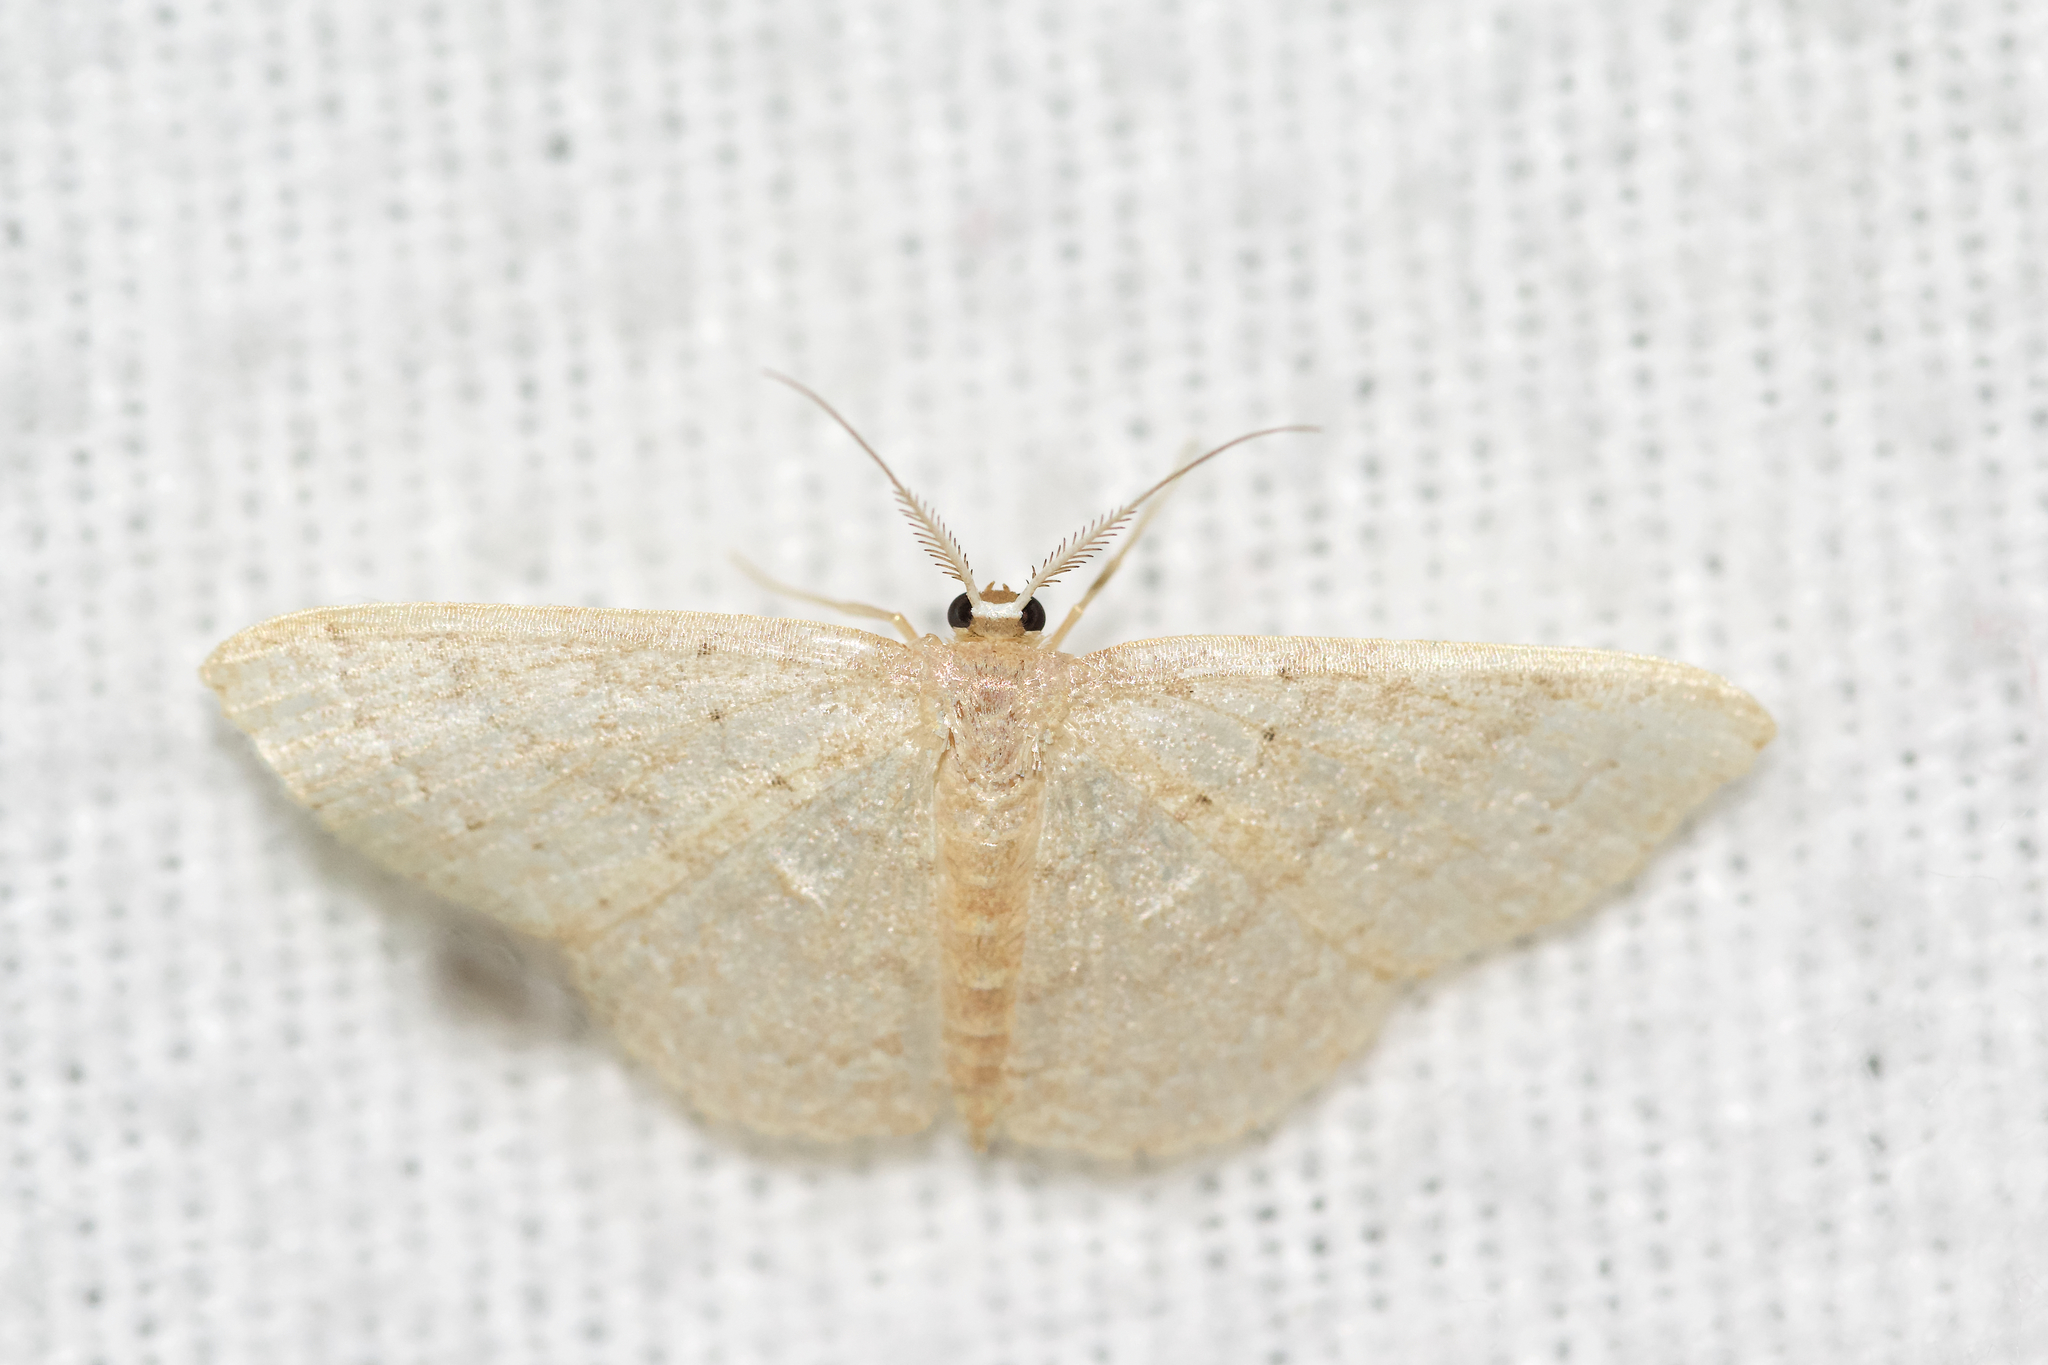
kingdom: Animalia
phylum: Arthropoda
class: Insecta
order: Lepidoptera
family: Geometridae
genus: Pleuroprucha
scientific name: Pleuroprucha insulsaria
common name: Common tan wave
